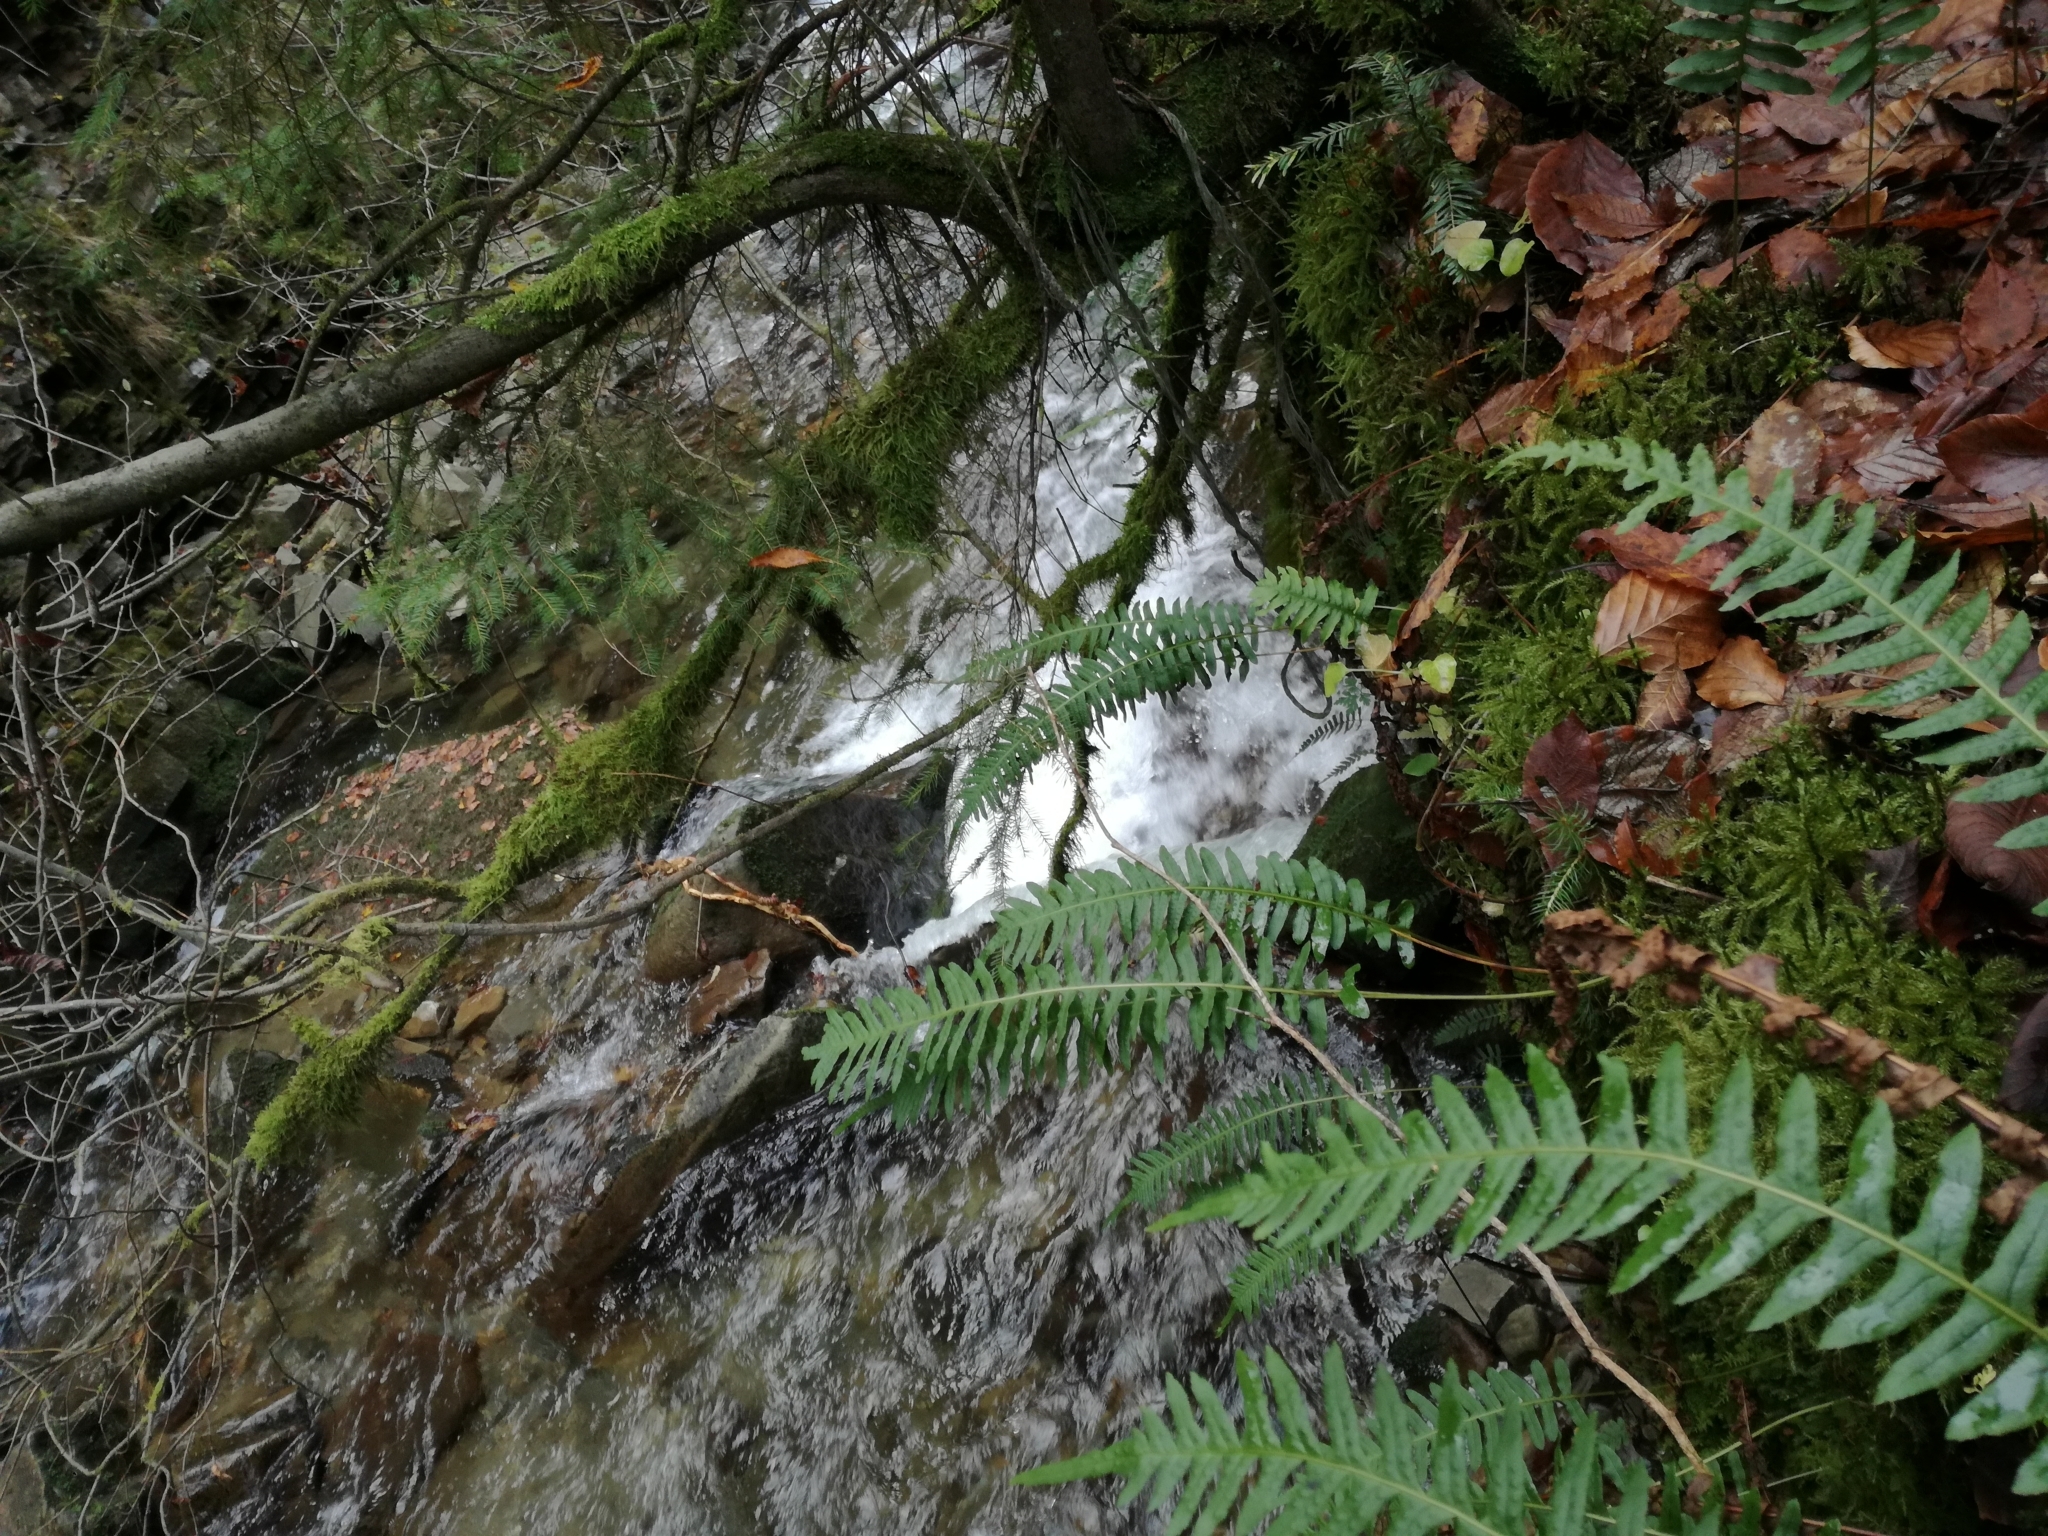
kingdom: Plantae
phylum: Tracheophyta
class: Polypodiopsida
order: Polypodiales
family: Polypodiaceae
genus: Polypodium
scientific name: Polypodium vulgare
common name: Common polypody
